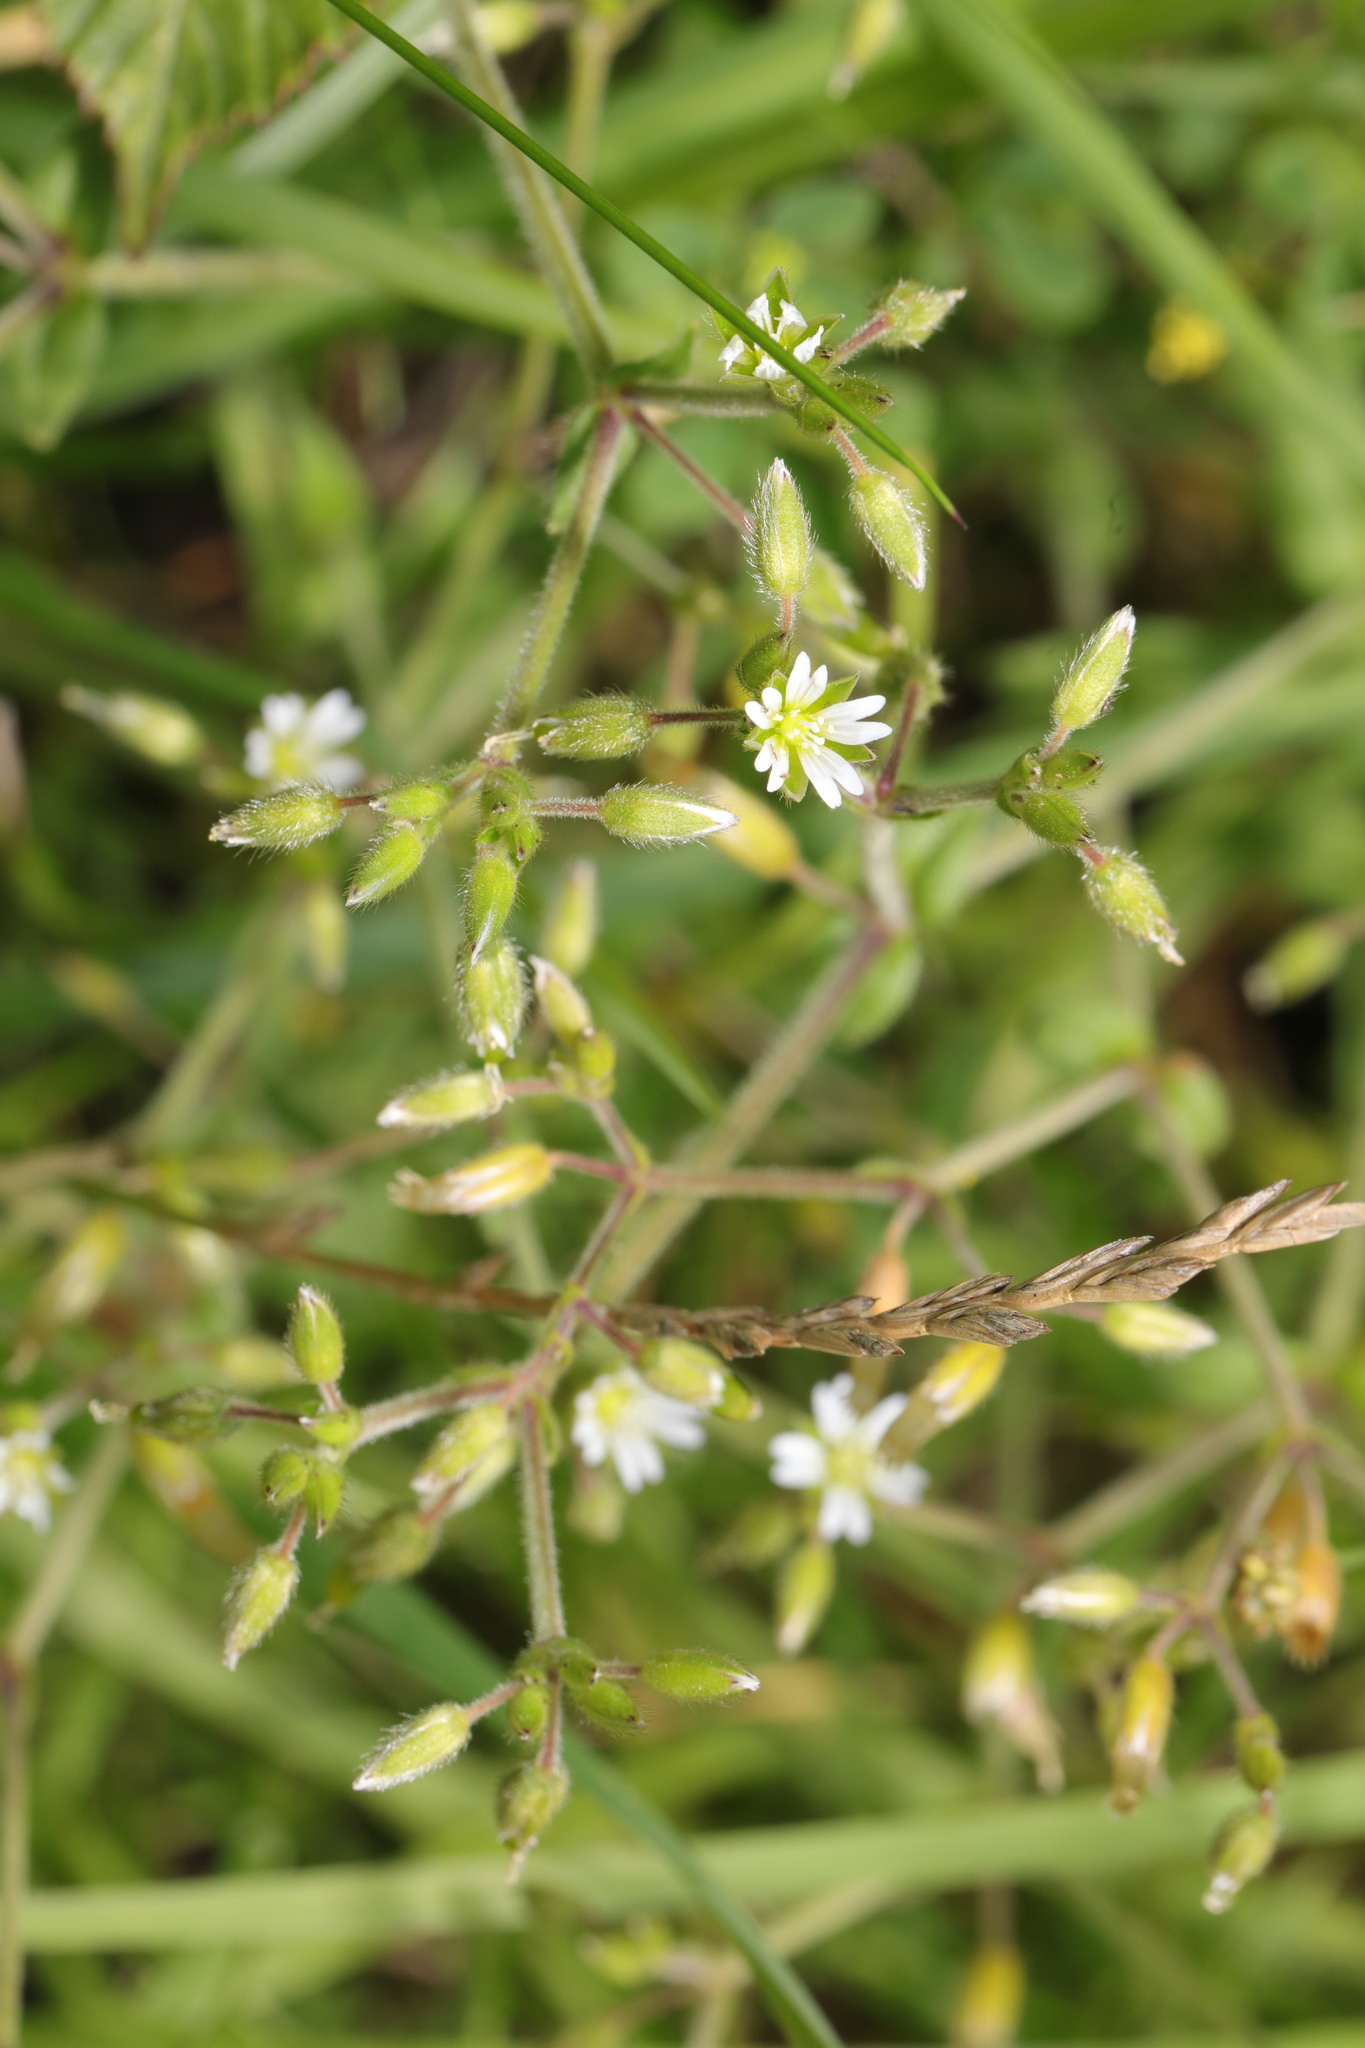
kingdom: Plantae
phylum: Tracheophyta
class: Magnoliopsida
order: Caryophyllales
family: Caryophyllaceae
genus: Cerastium
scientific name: Cerastium glomeratum
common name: Sticky chickweed
